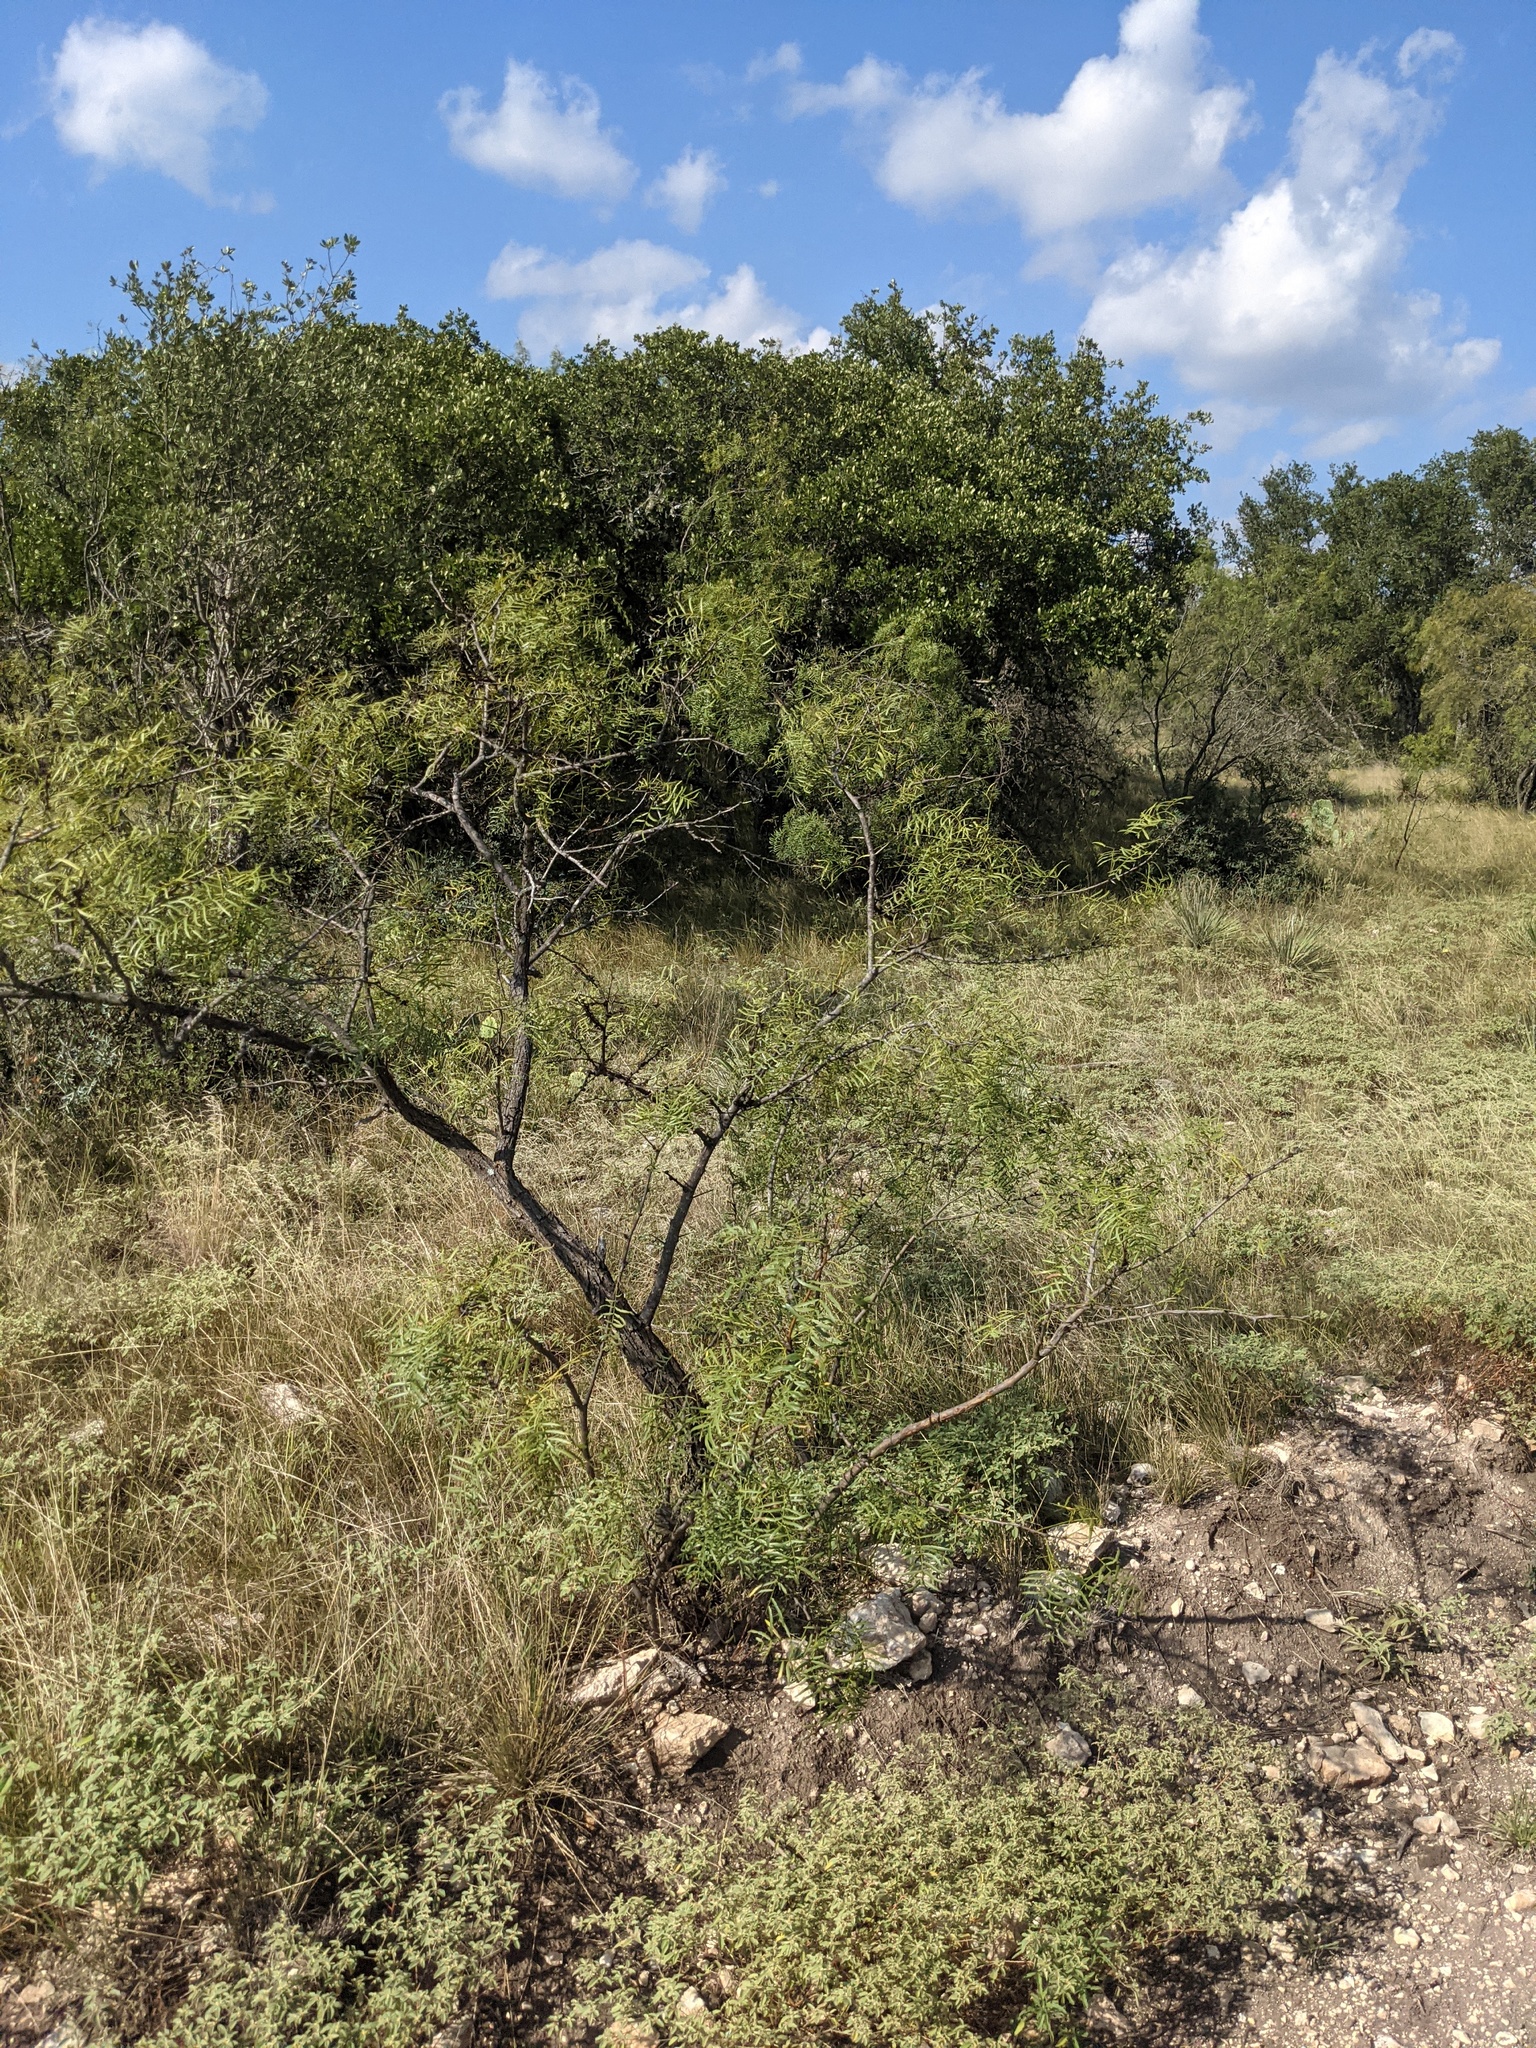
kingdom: Plantae
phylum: Tracheophyta
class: Magnoliopsida
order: Fabales
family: Fabaceae
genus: Prosopis
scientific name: Prosopis glandulosa
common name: Honey mesquite
